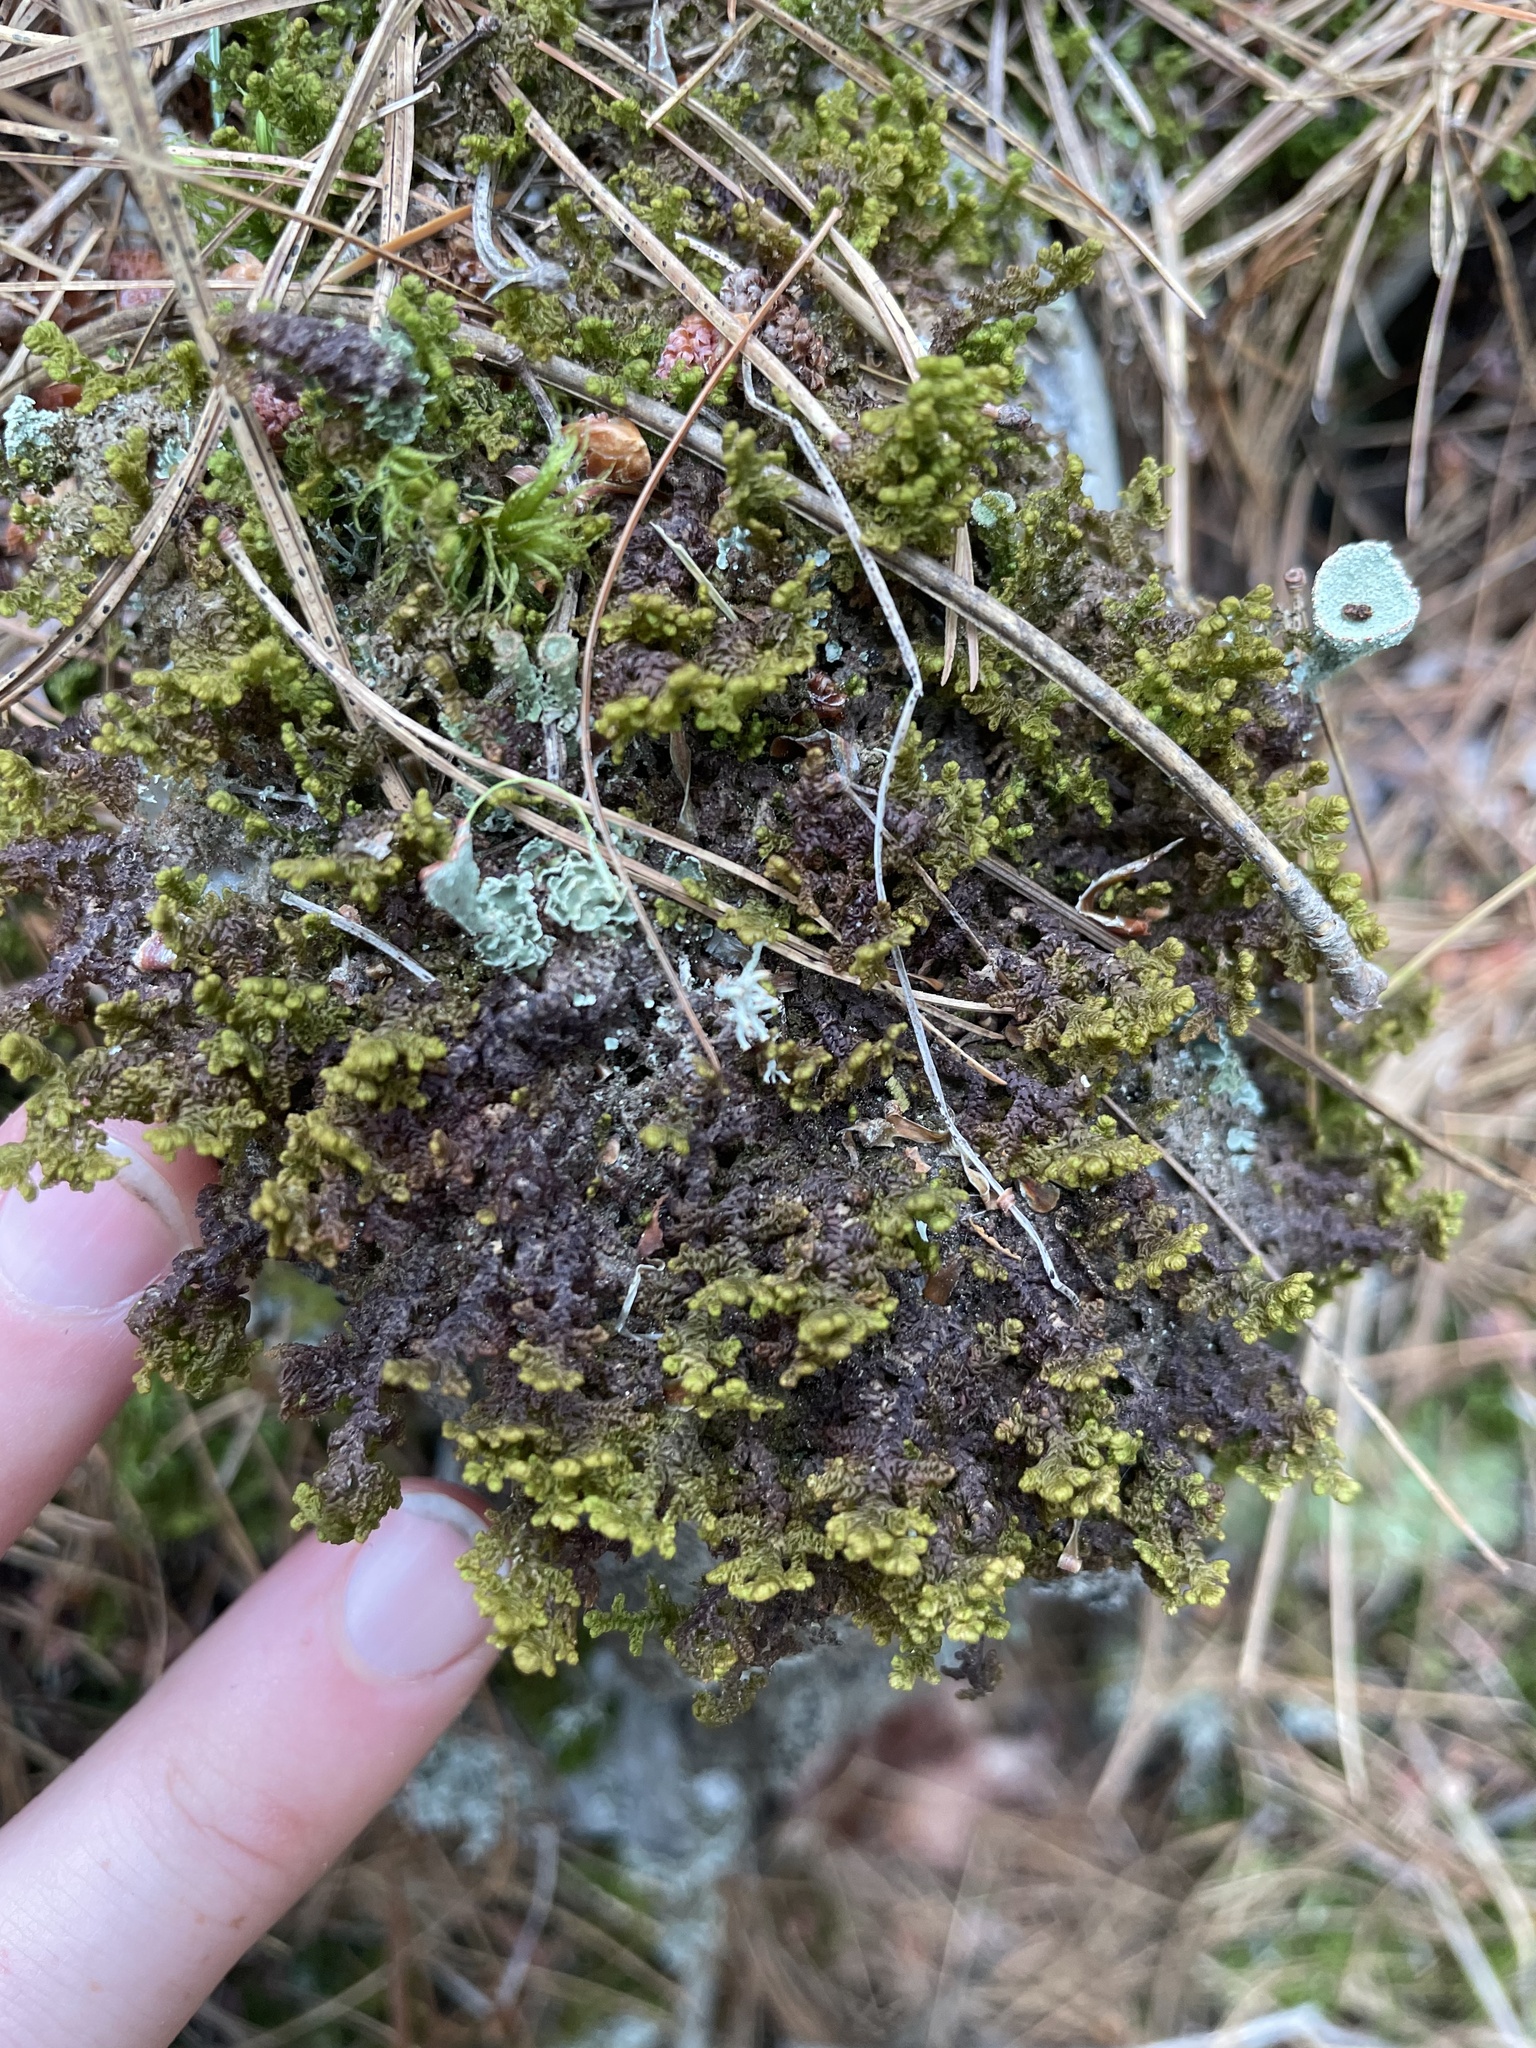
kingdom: Plantae
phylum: Marchantiophyta
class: Jungermanniopsida
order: Ptilidiales
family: Ptilidiaceae
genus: Ptilidium
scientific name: Ptilidium ciliare
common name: Ciliate fringewort
